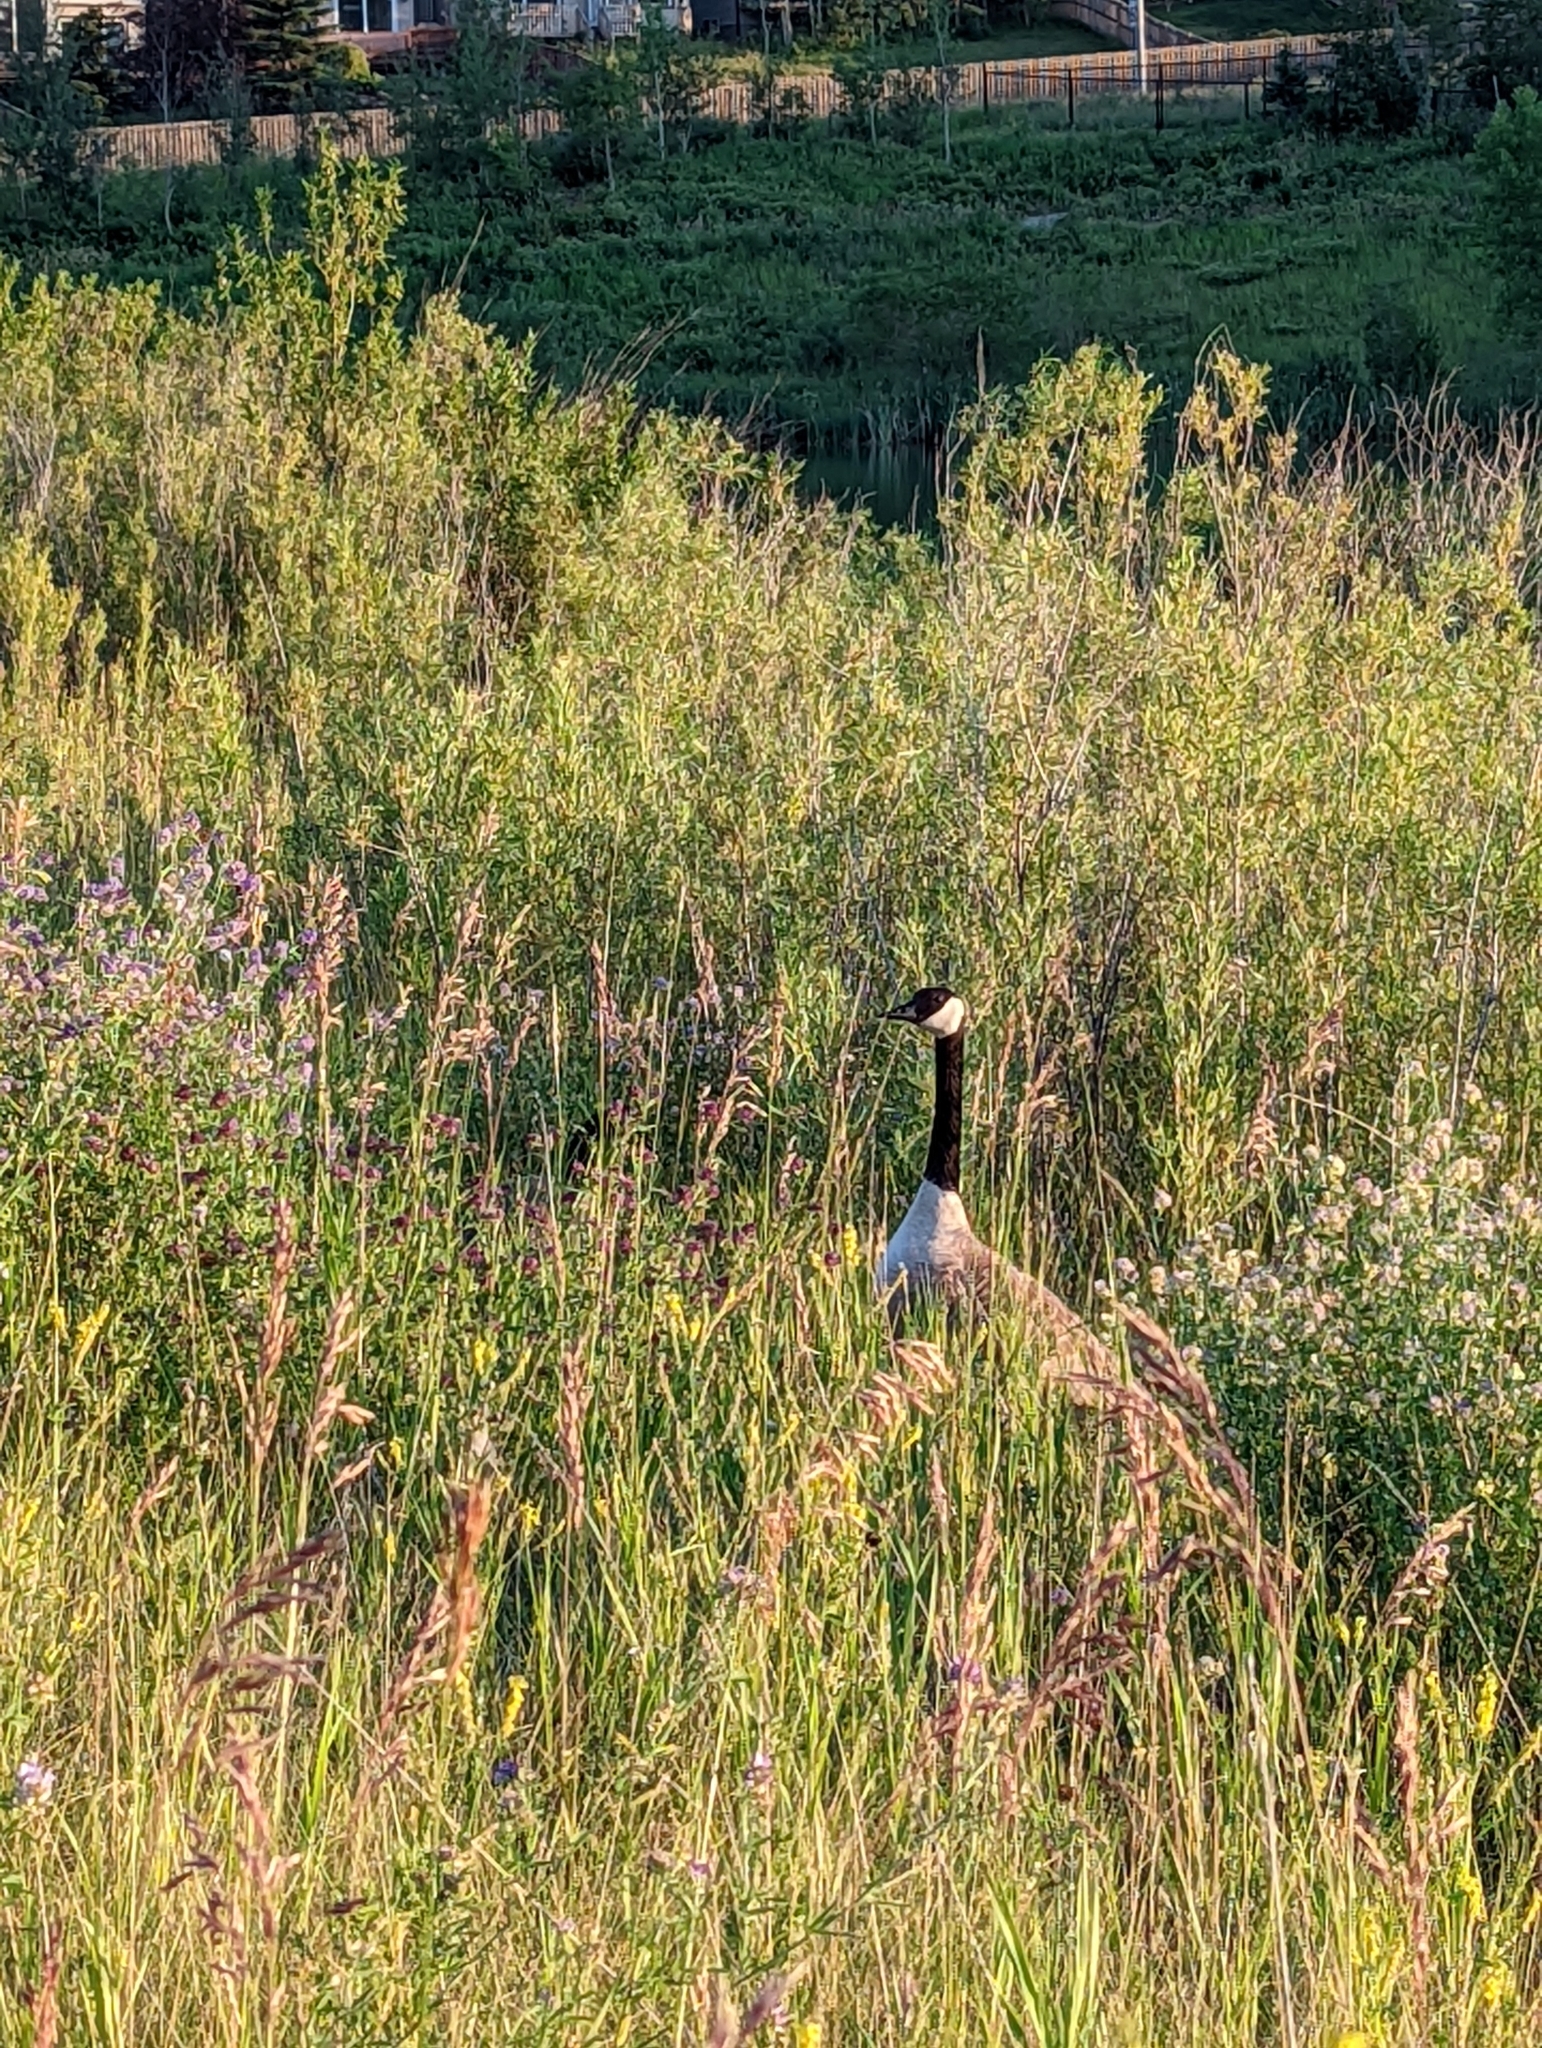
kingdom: Animalia
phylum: Chordata
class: Aves
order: Anseriformes
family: Anatidae
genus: Branta
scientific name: Branta canadensis
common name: Canada goose
